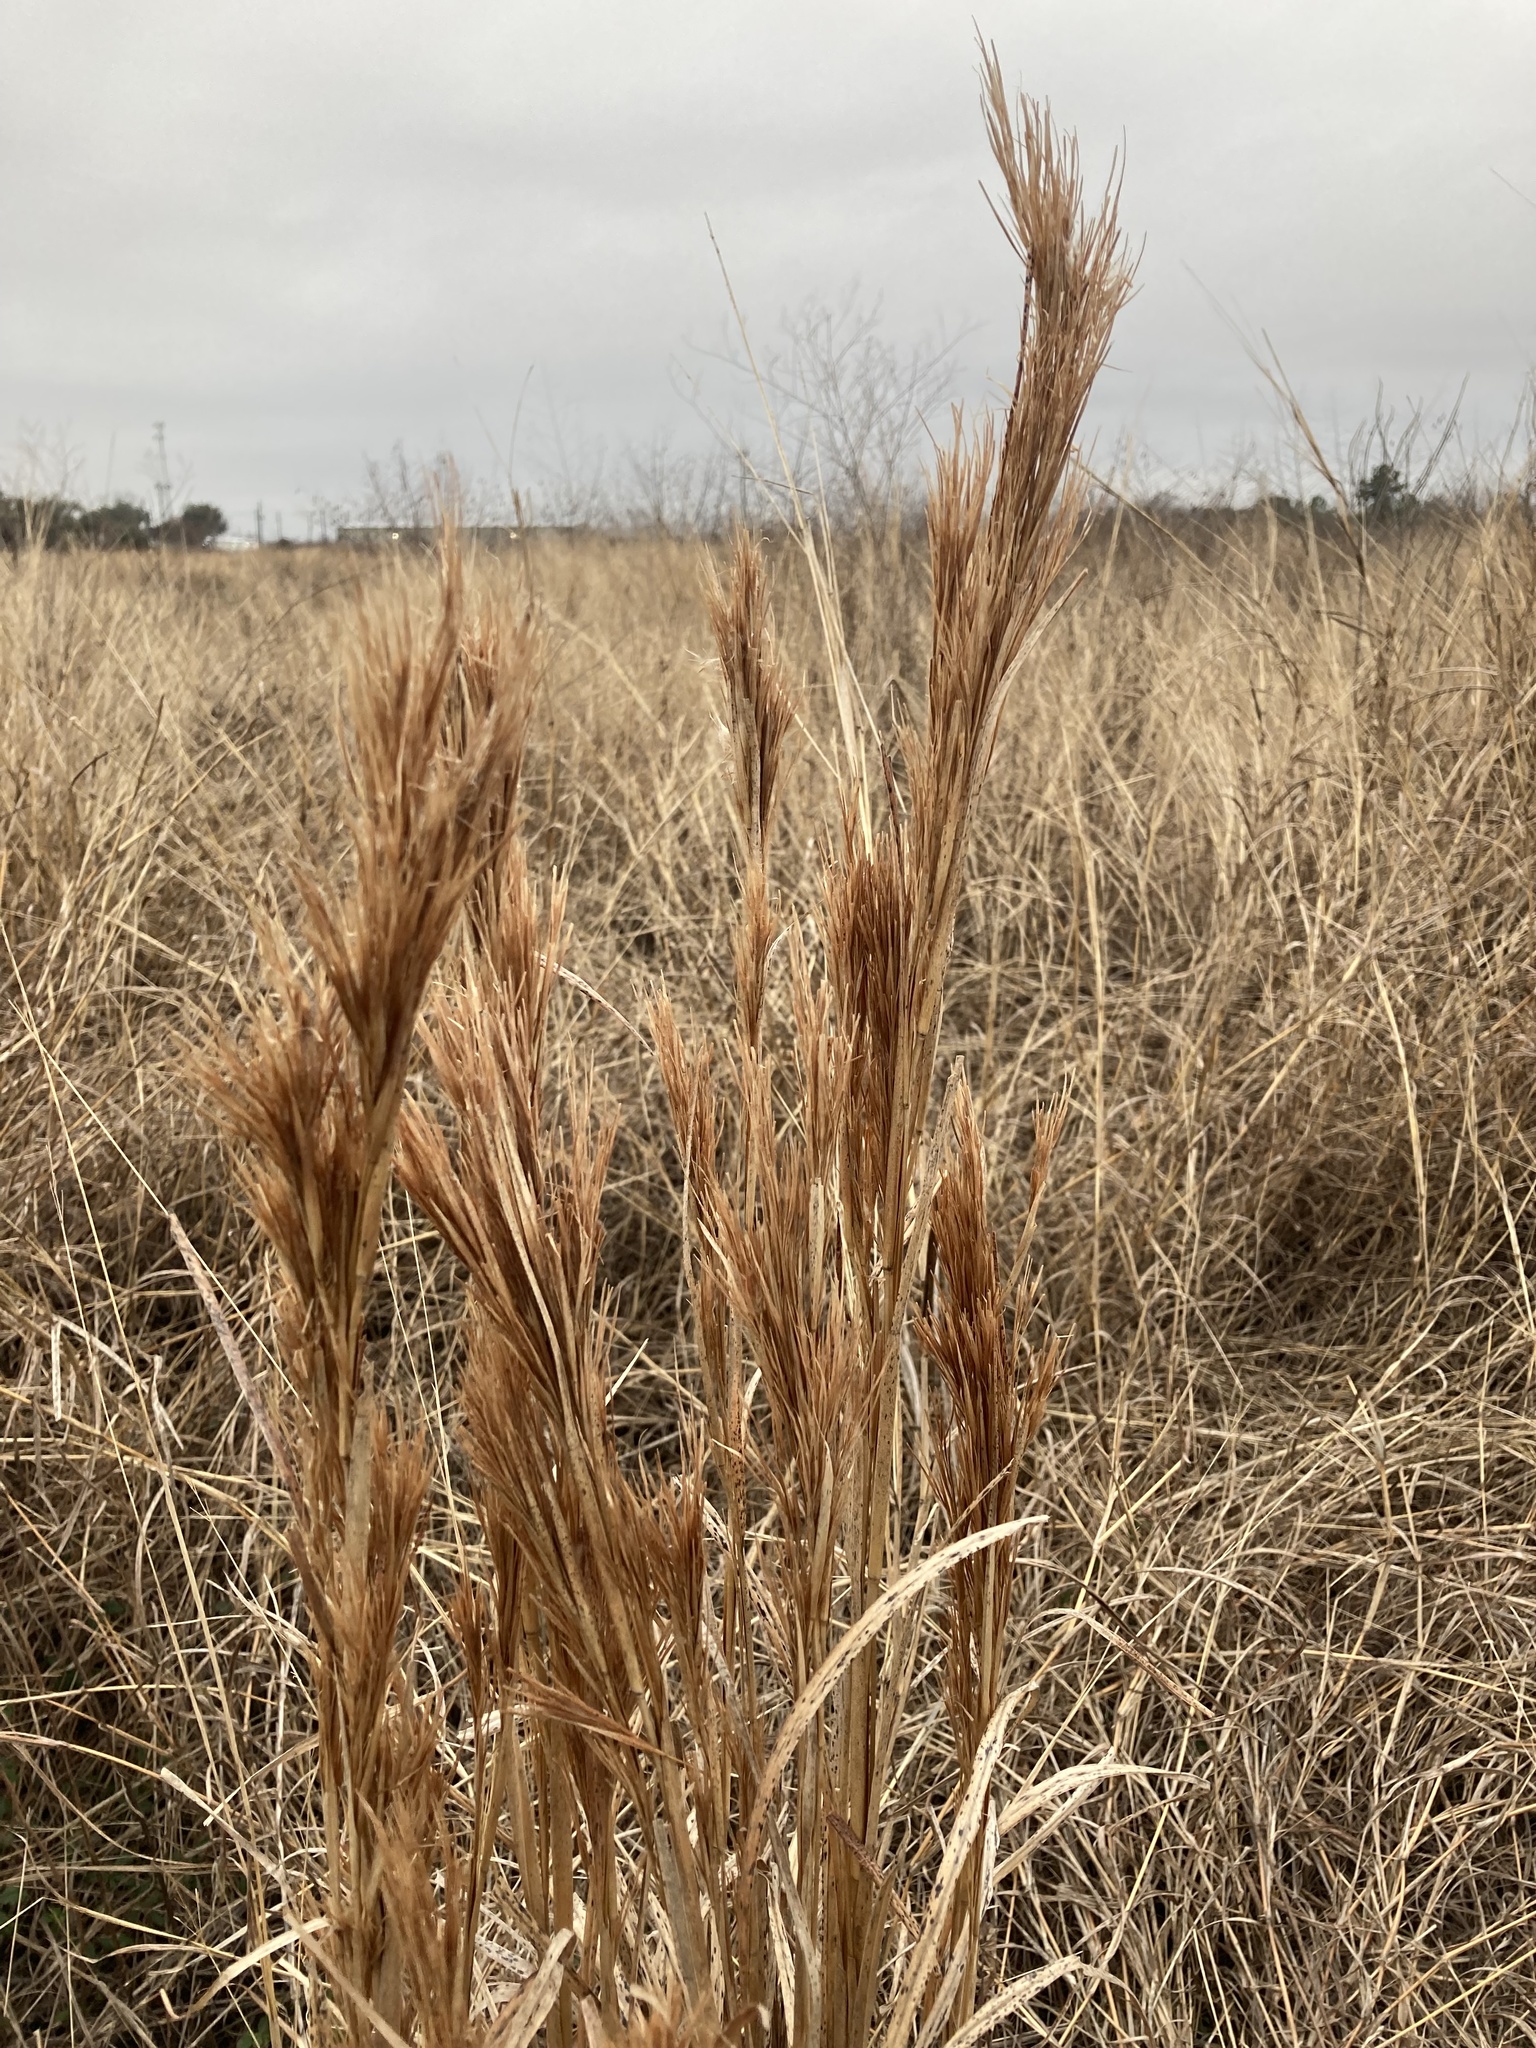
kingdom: Plantae
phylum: Tracheophyta
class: Liliopsida
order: Poales
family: Poaceae
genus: Andropogon
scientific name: Andropogon tenuispatheus
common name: Bushy bluestem
